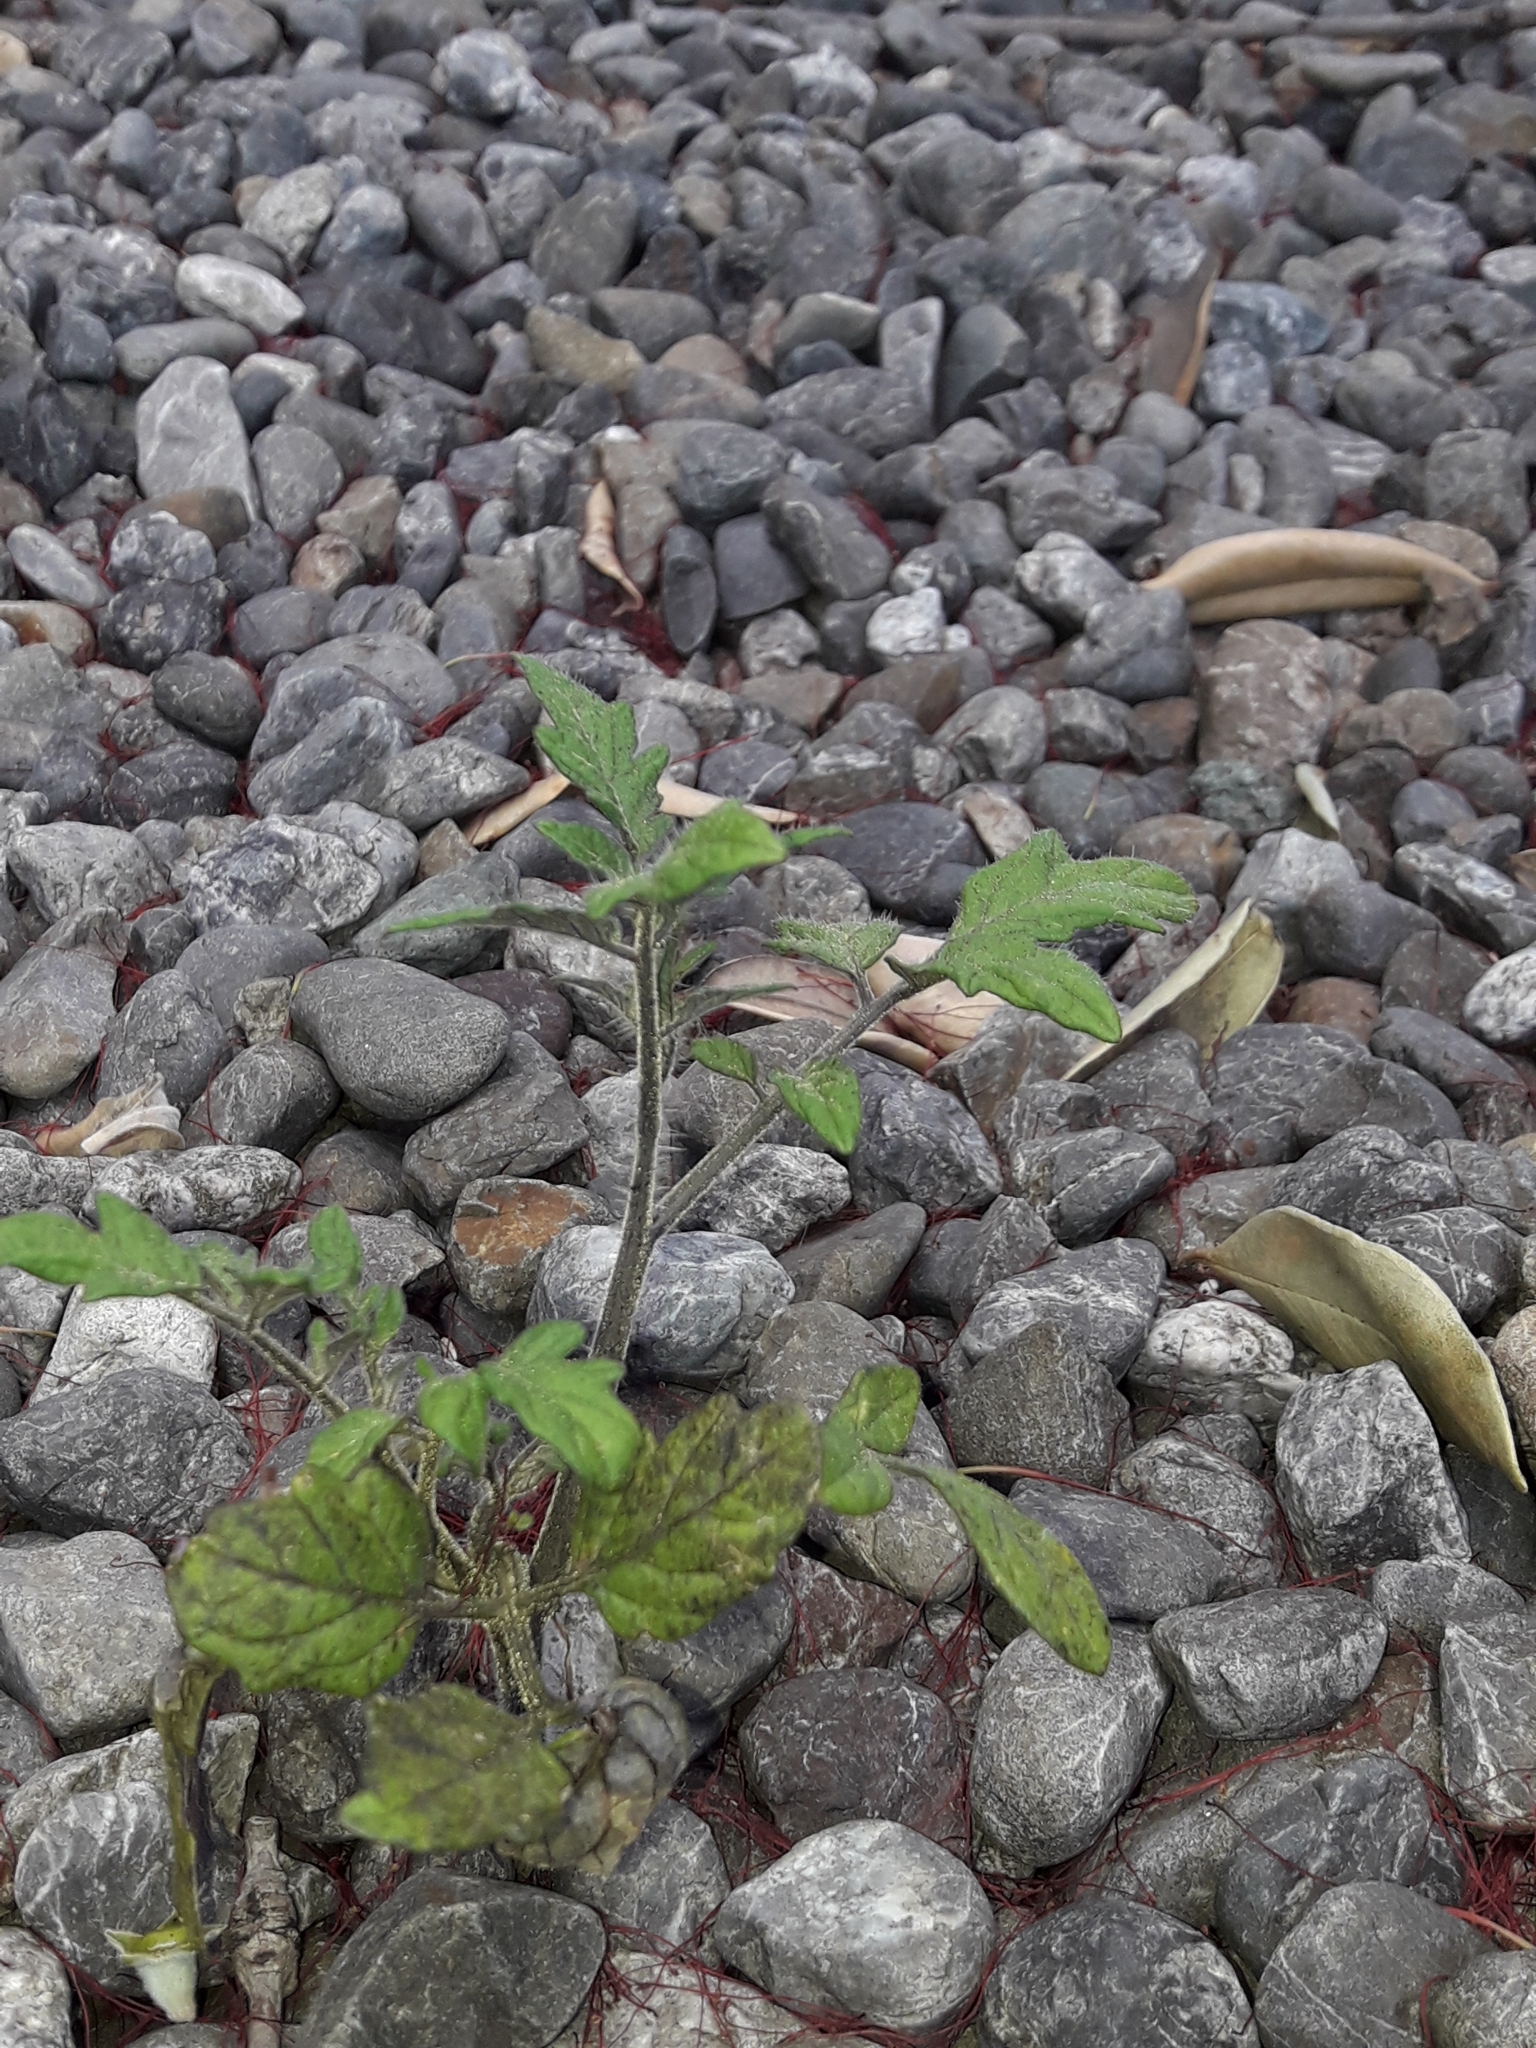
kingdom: Plantae
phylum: Tracheophyta
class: Magnoliopsida
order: Solanales
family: Solanaceae
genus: Solanum
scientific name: Solanum lycopersicum
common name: Garden tomato
